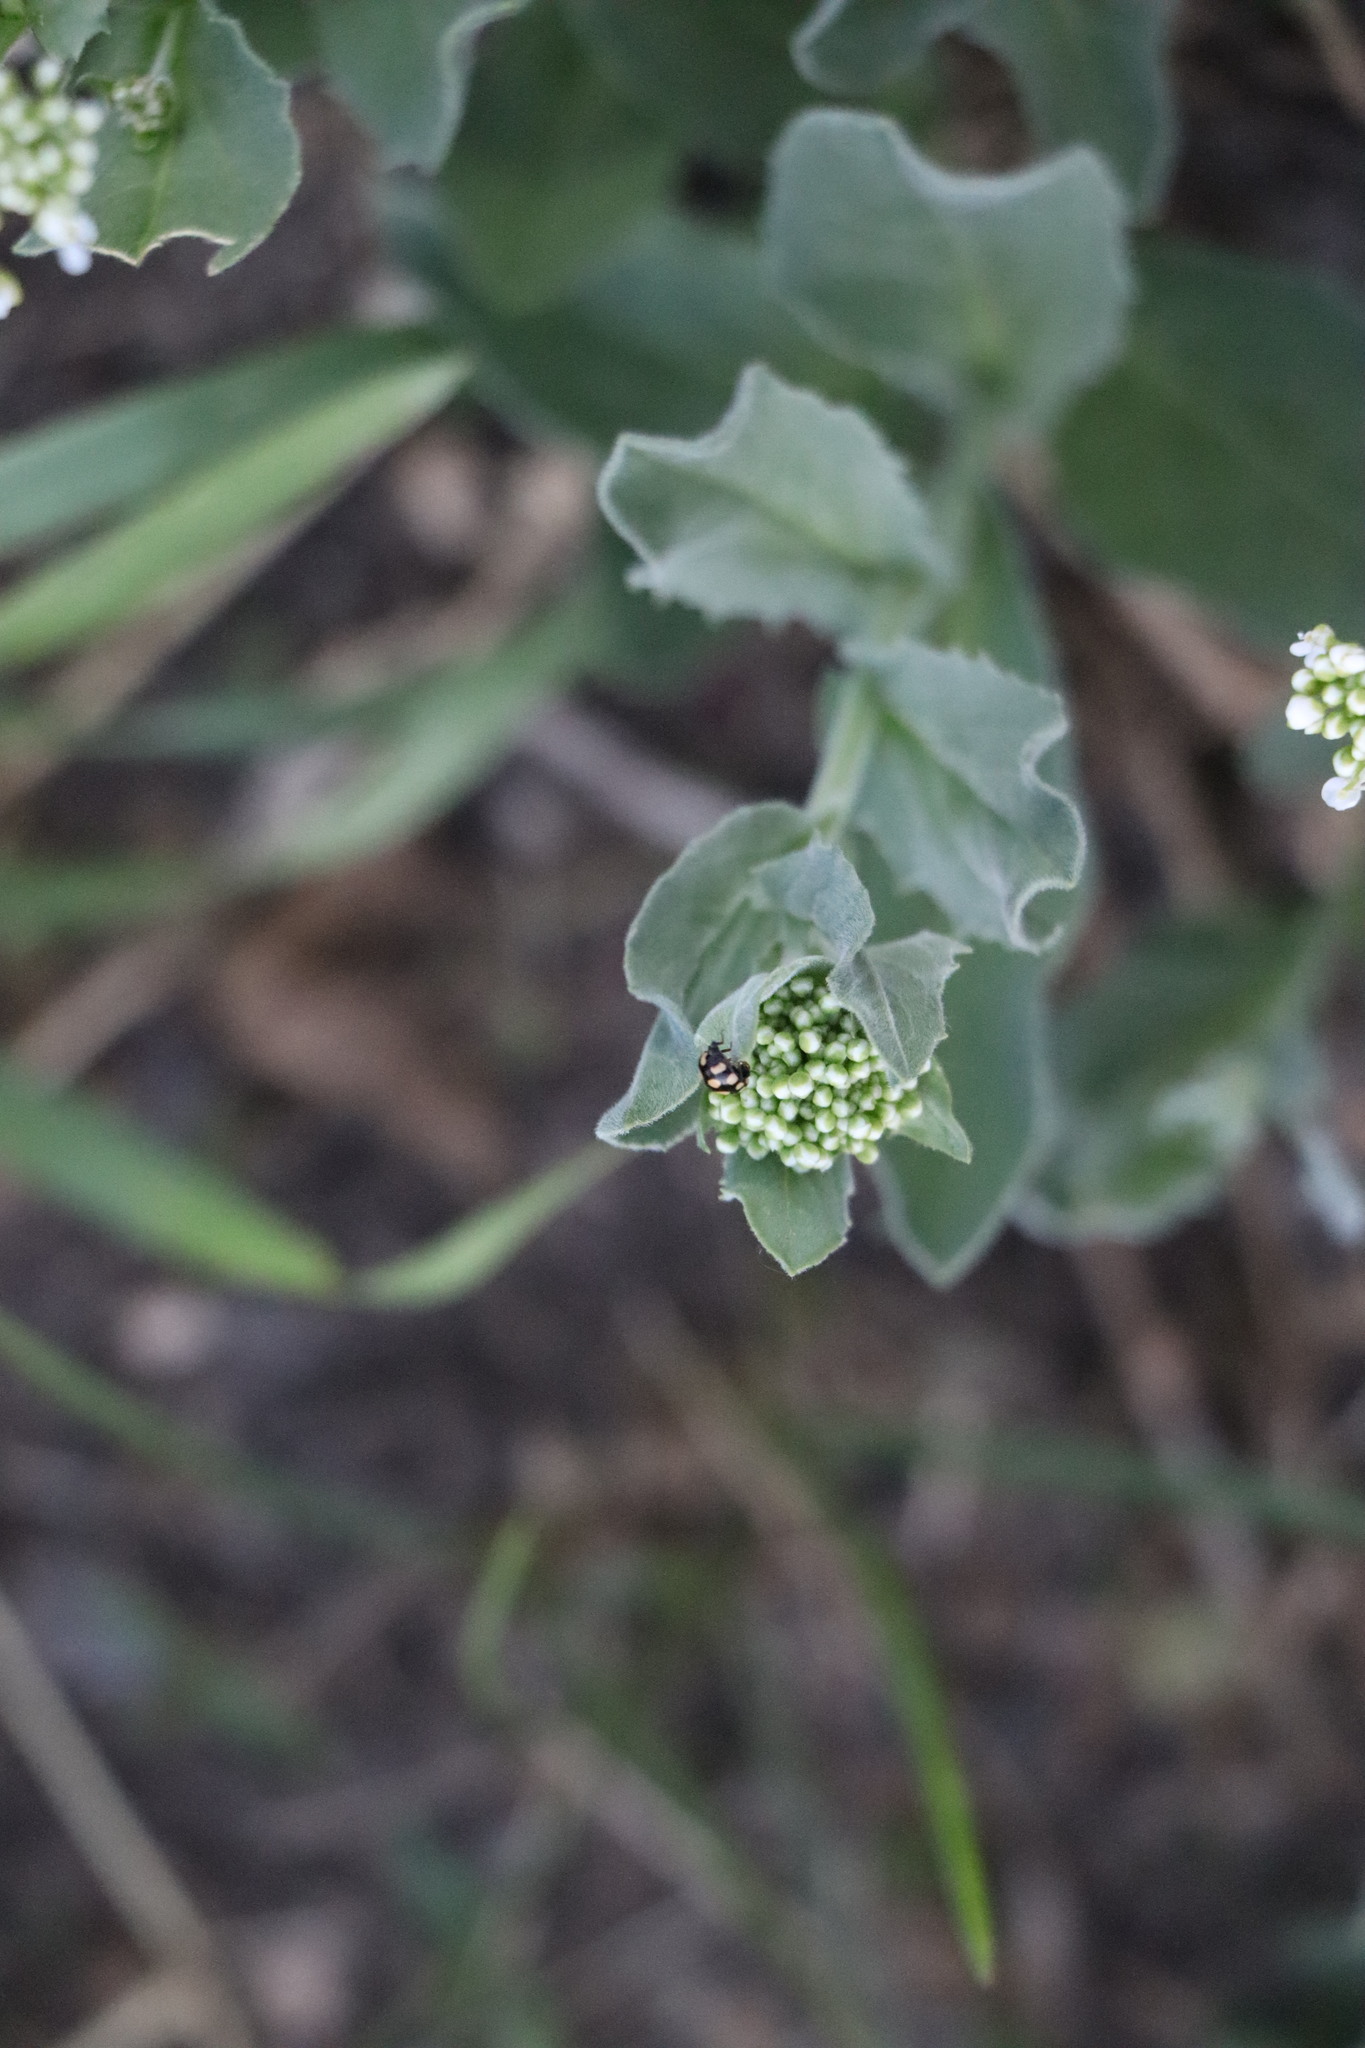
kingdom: Animalia
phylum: Arthropoda
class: Insecta
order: Coleoptera
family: Coccinellidae
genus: Coccinula
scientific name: Coccinula quatuordecimpustulata
